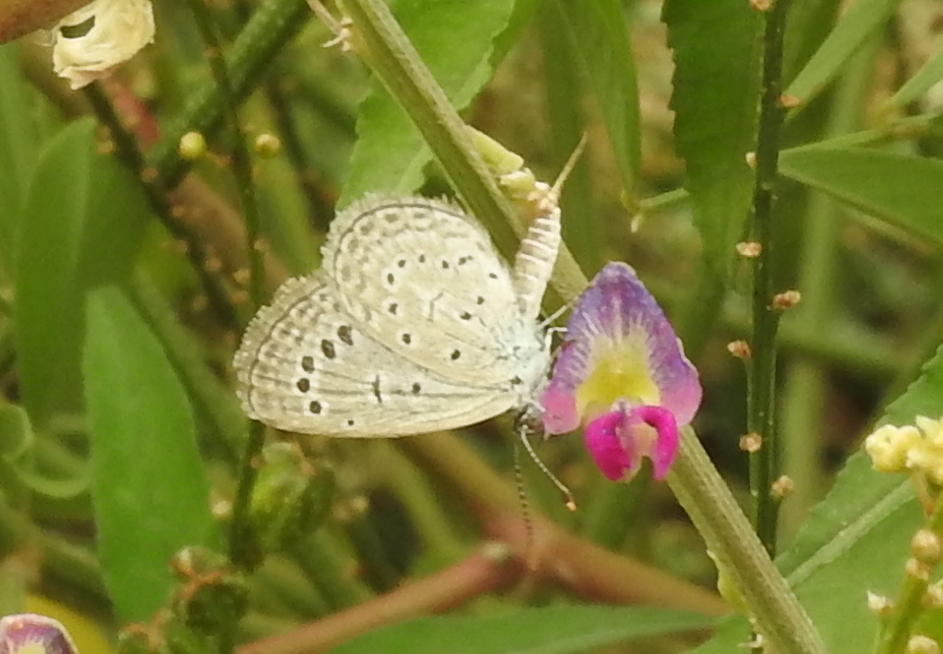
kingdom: Animalia
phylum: Arthropoda
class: Insecta
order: Lepidoptera
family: Lycaenidae
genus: Zizeeria
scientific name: Zizeeria karsandra
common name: Dark grass blue
